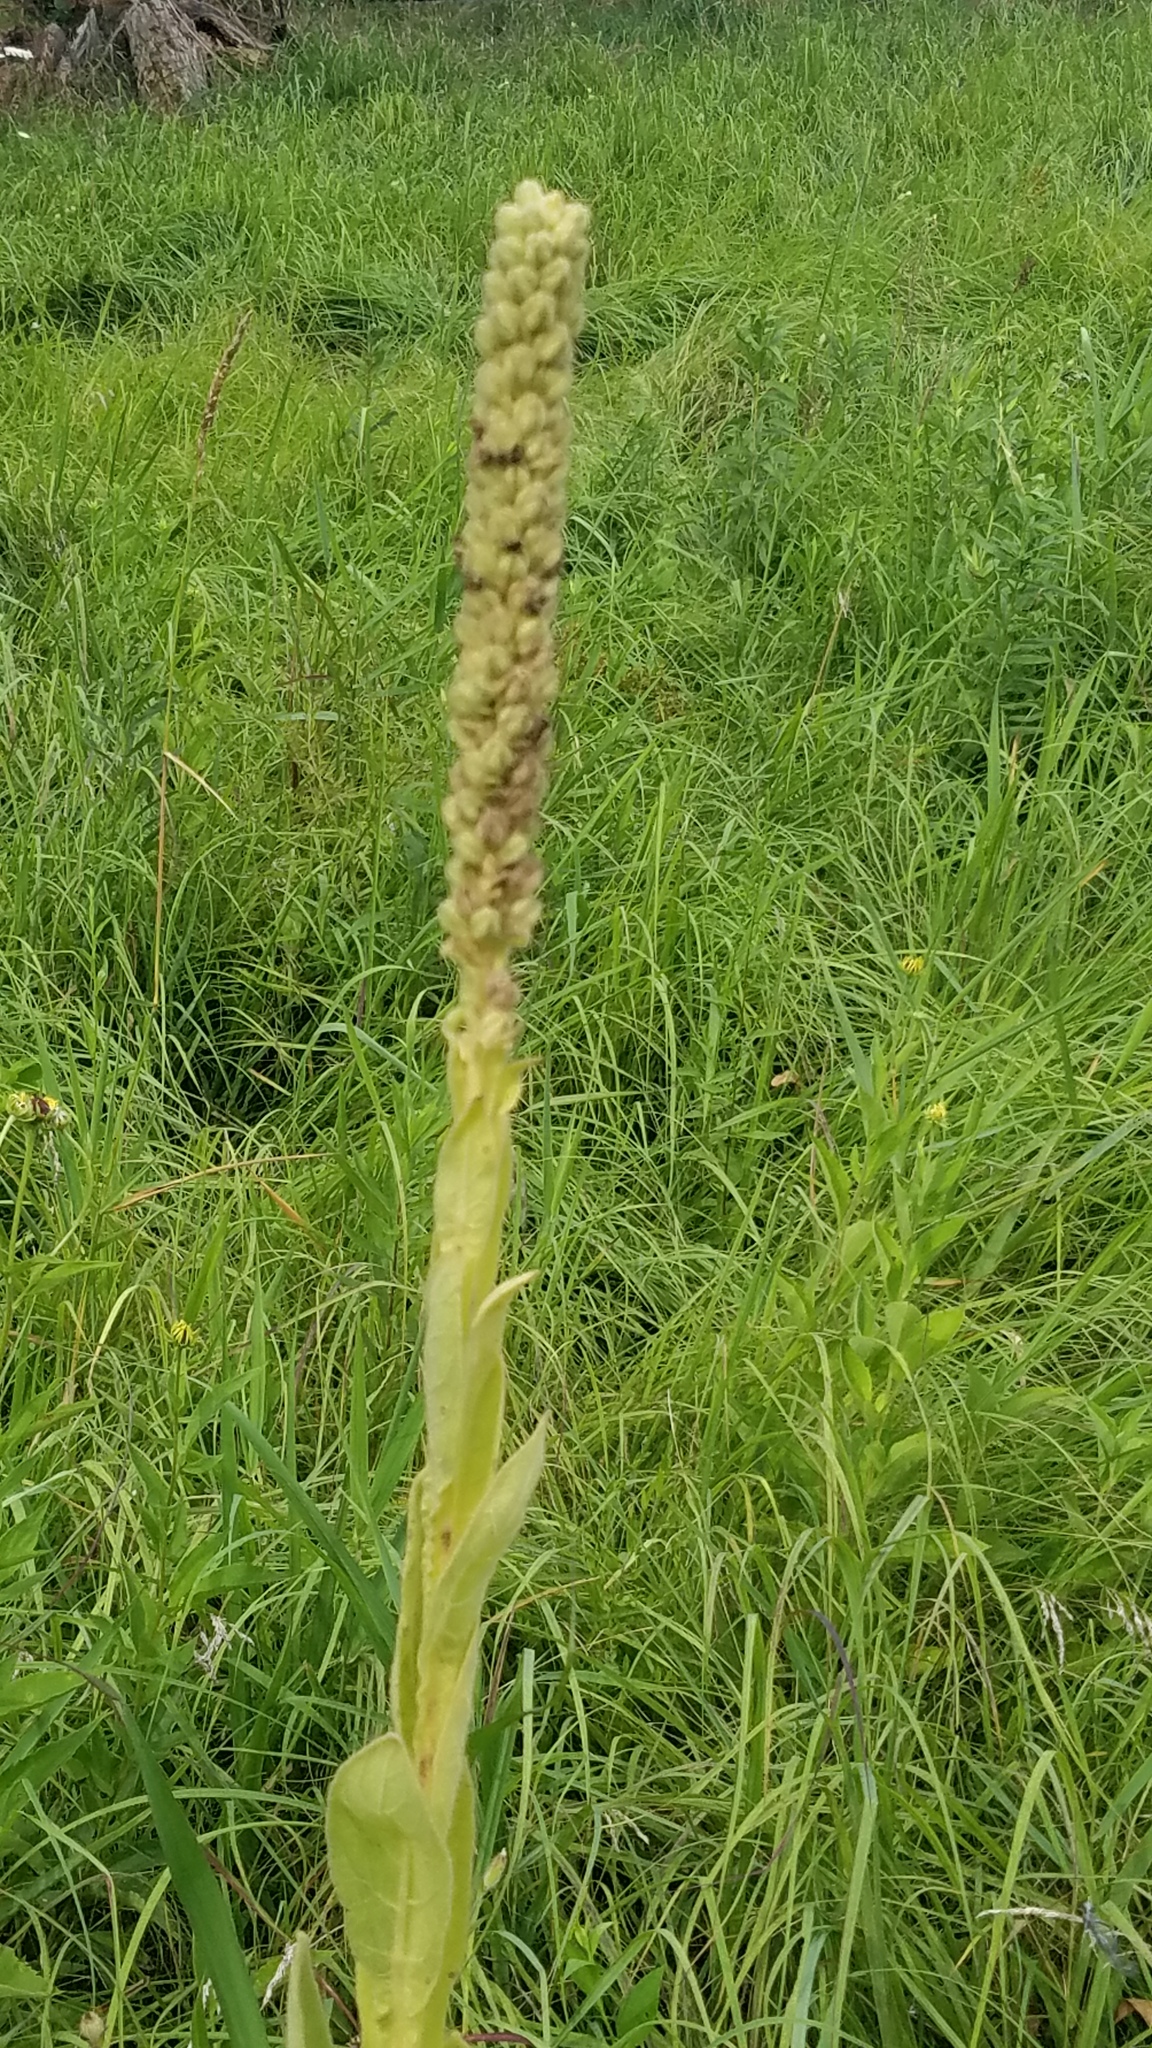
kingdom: Plantae
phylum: Tracheophyta
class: Magnoliopsida
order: Lamiales
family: Scrophulariaceae
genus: Verbascum
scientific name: Verbascum thapsus
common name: Common mullein
